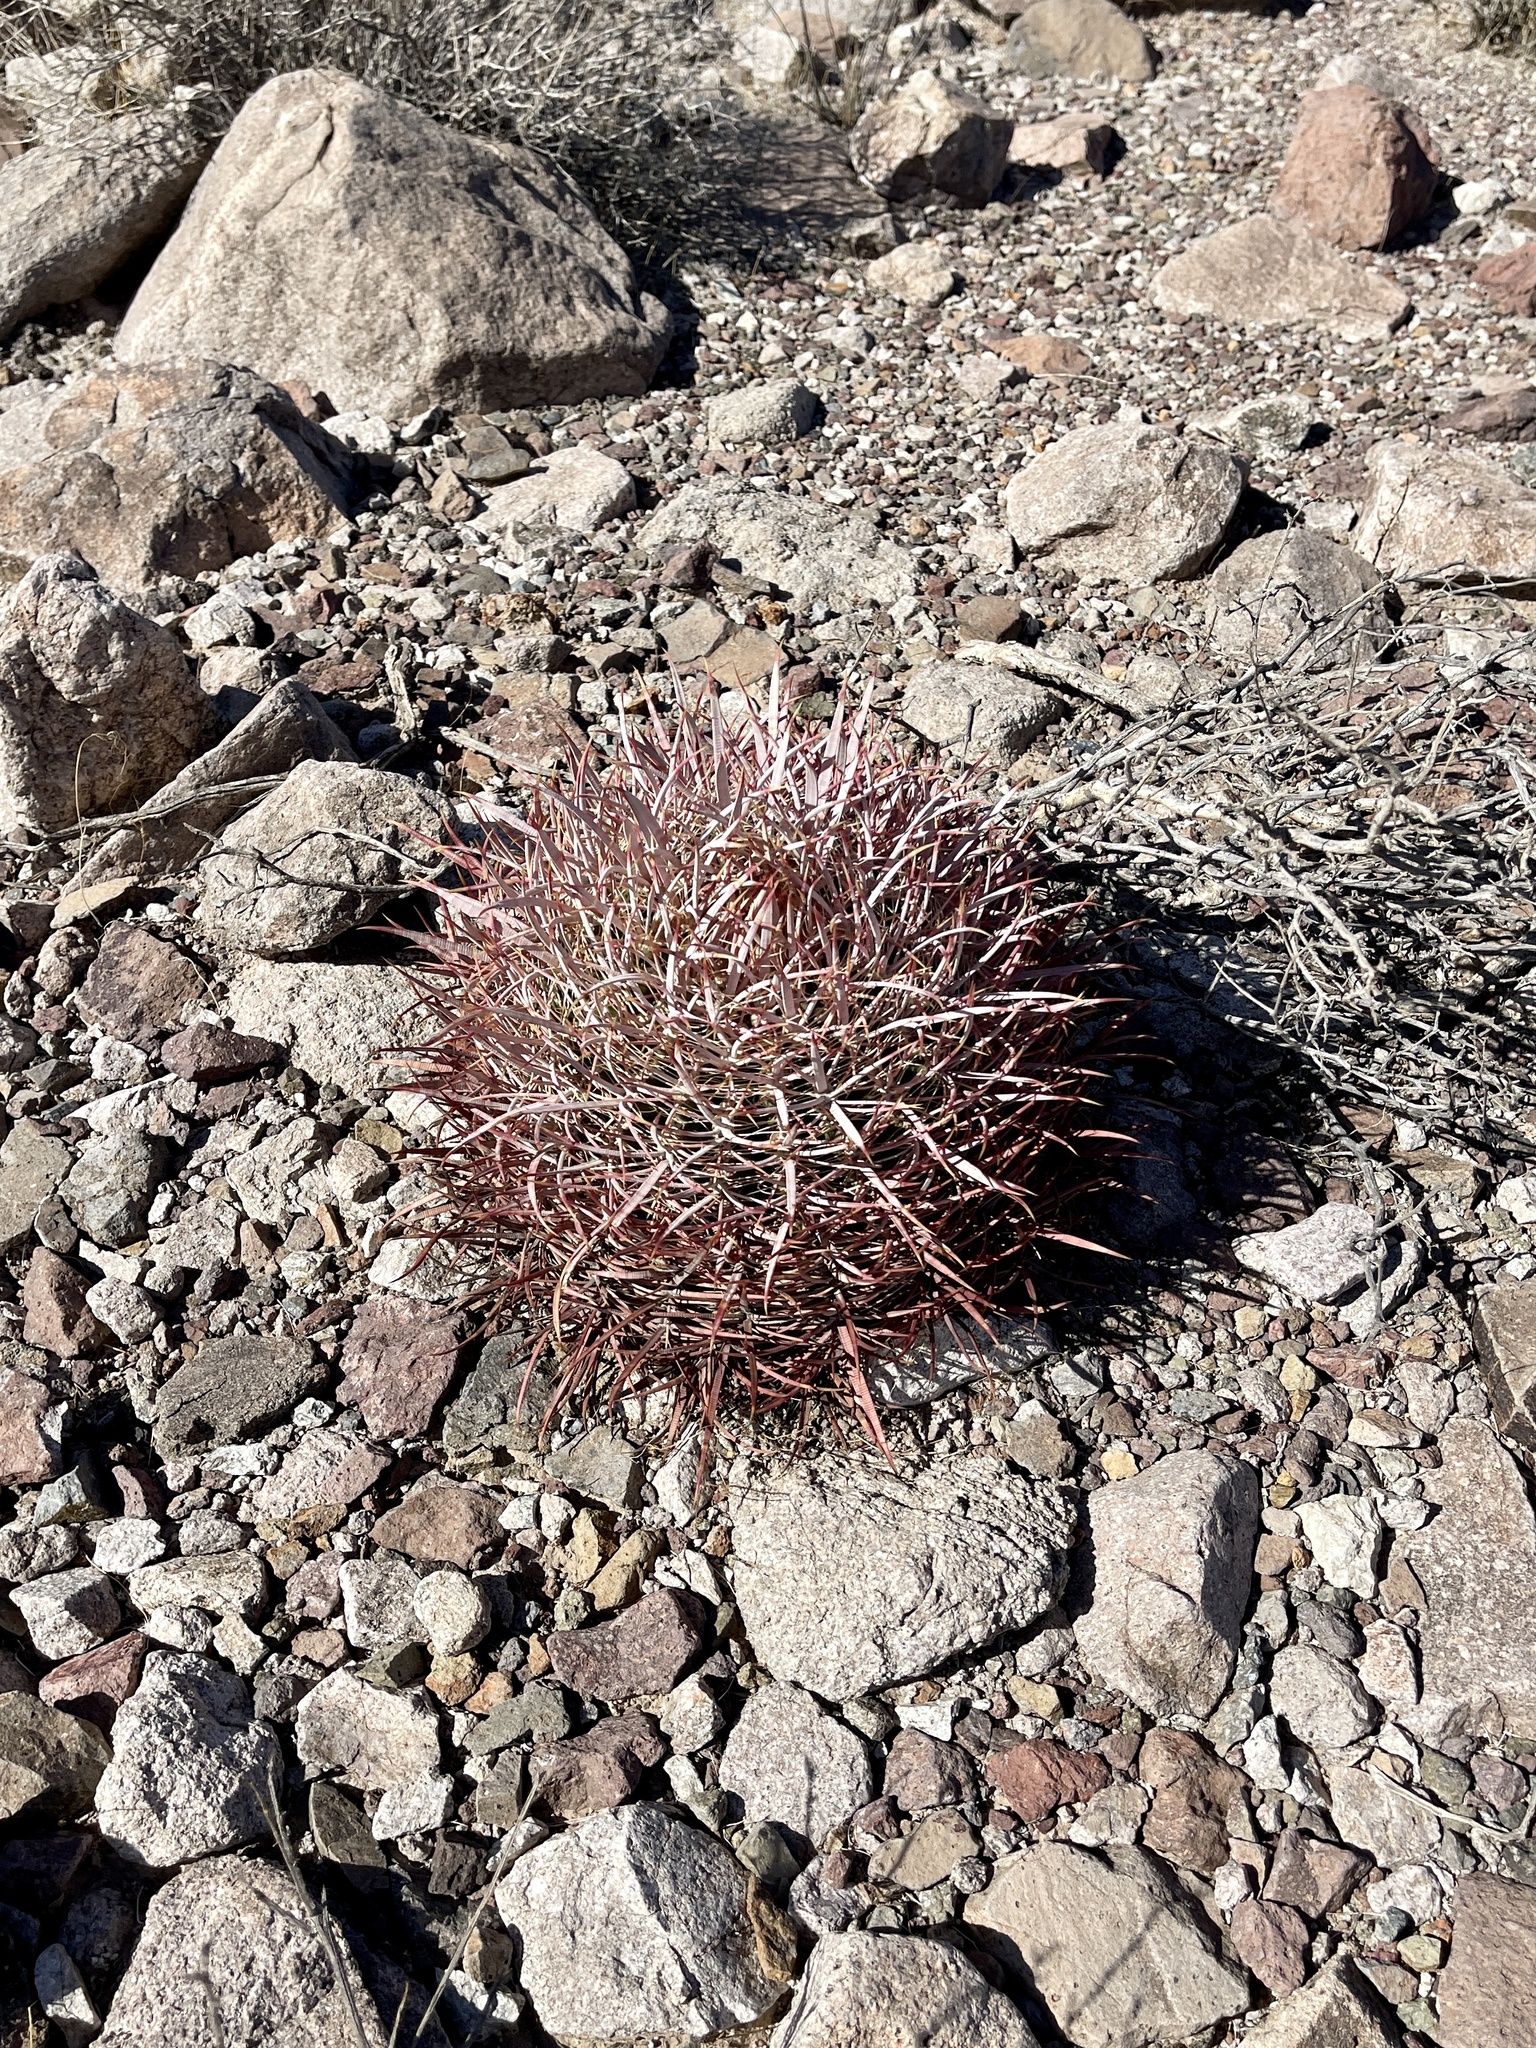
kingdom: Plantae
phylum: Tracheophyta
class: Magnoliopsida
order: Caryophyllales
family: Cactaceae
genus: Ferocactus
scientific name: Ferocactus cylindraceus
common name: California barrel cactus
